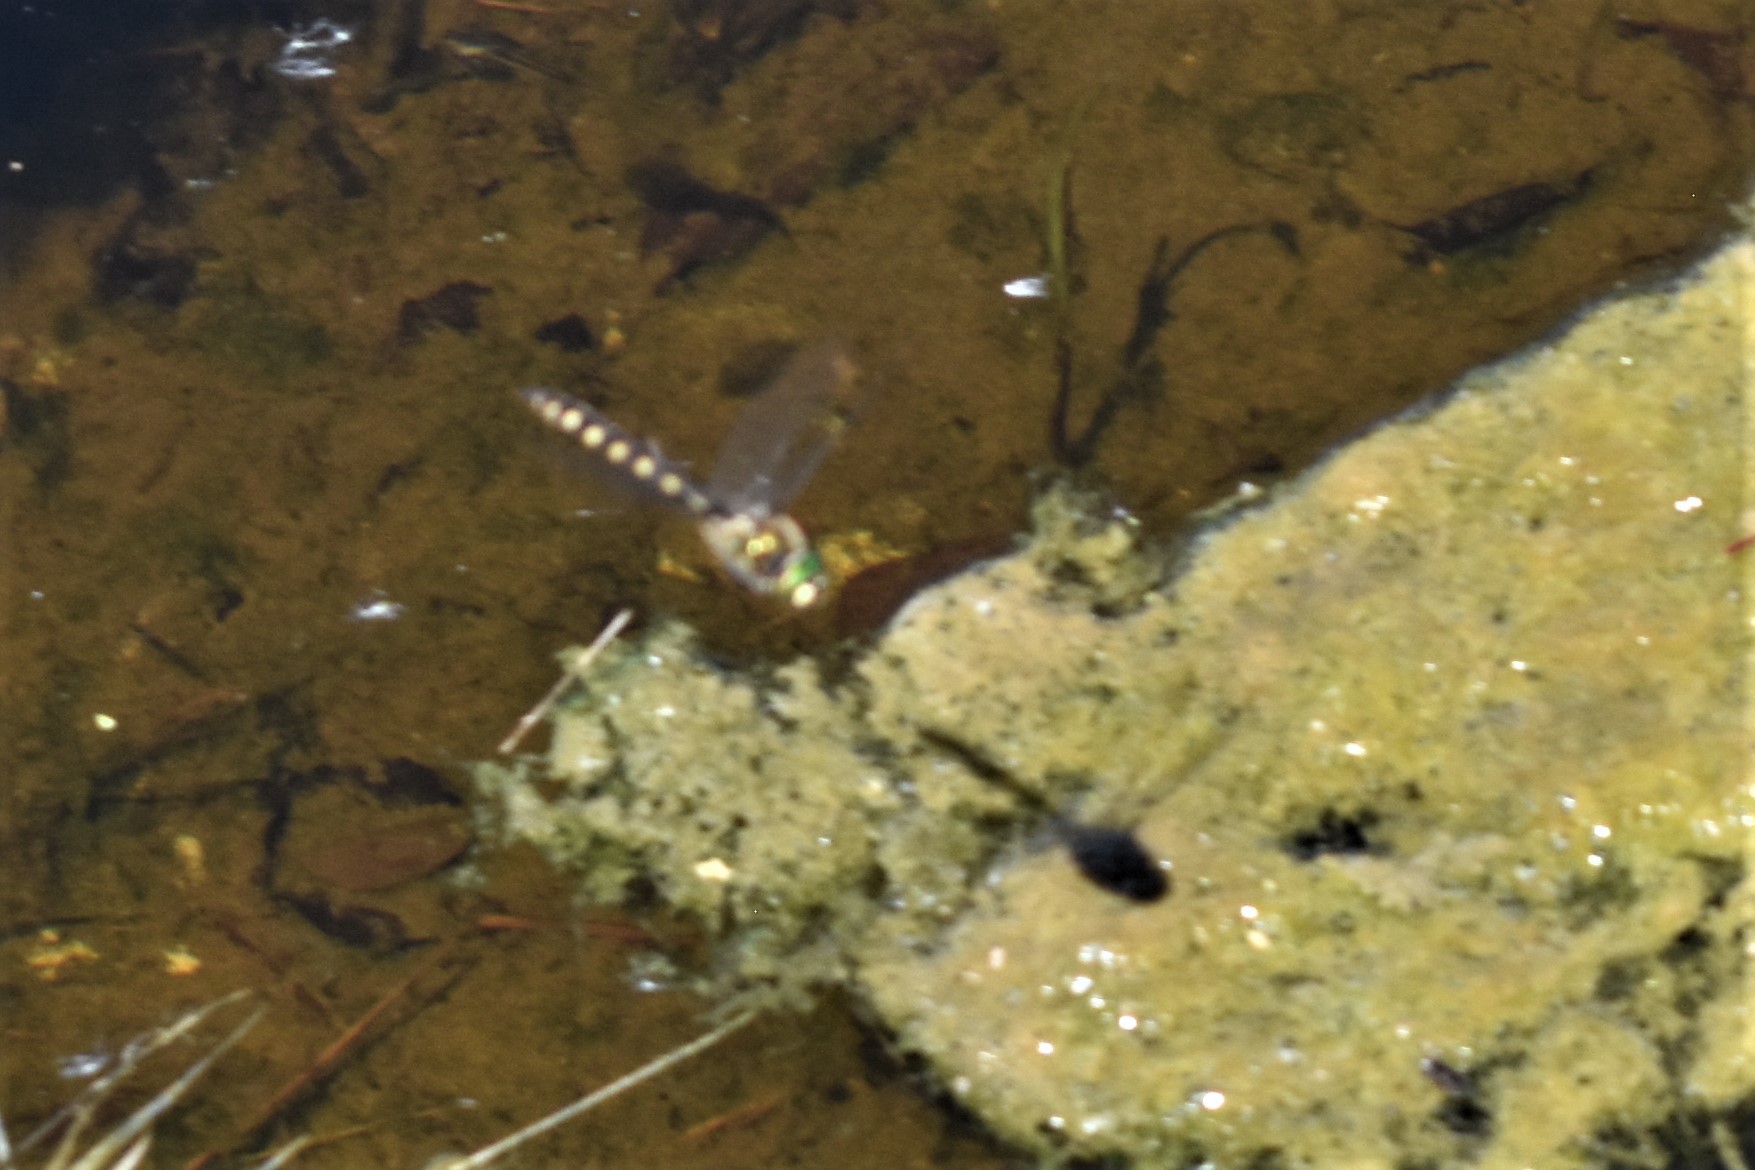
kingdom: Animalia
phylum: Arthropoda
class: Insecta
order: Odonata
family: Corduliidae
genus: Procordulia
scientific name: Procordulia grayi
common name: Yellow spotted dragonfly
